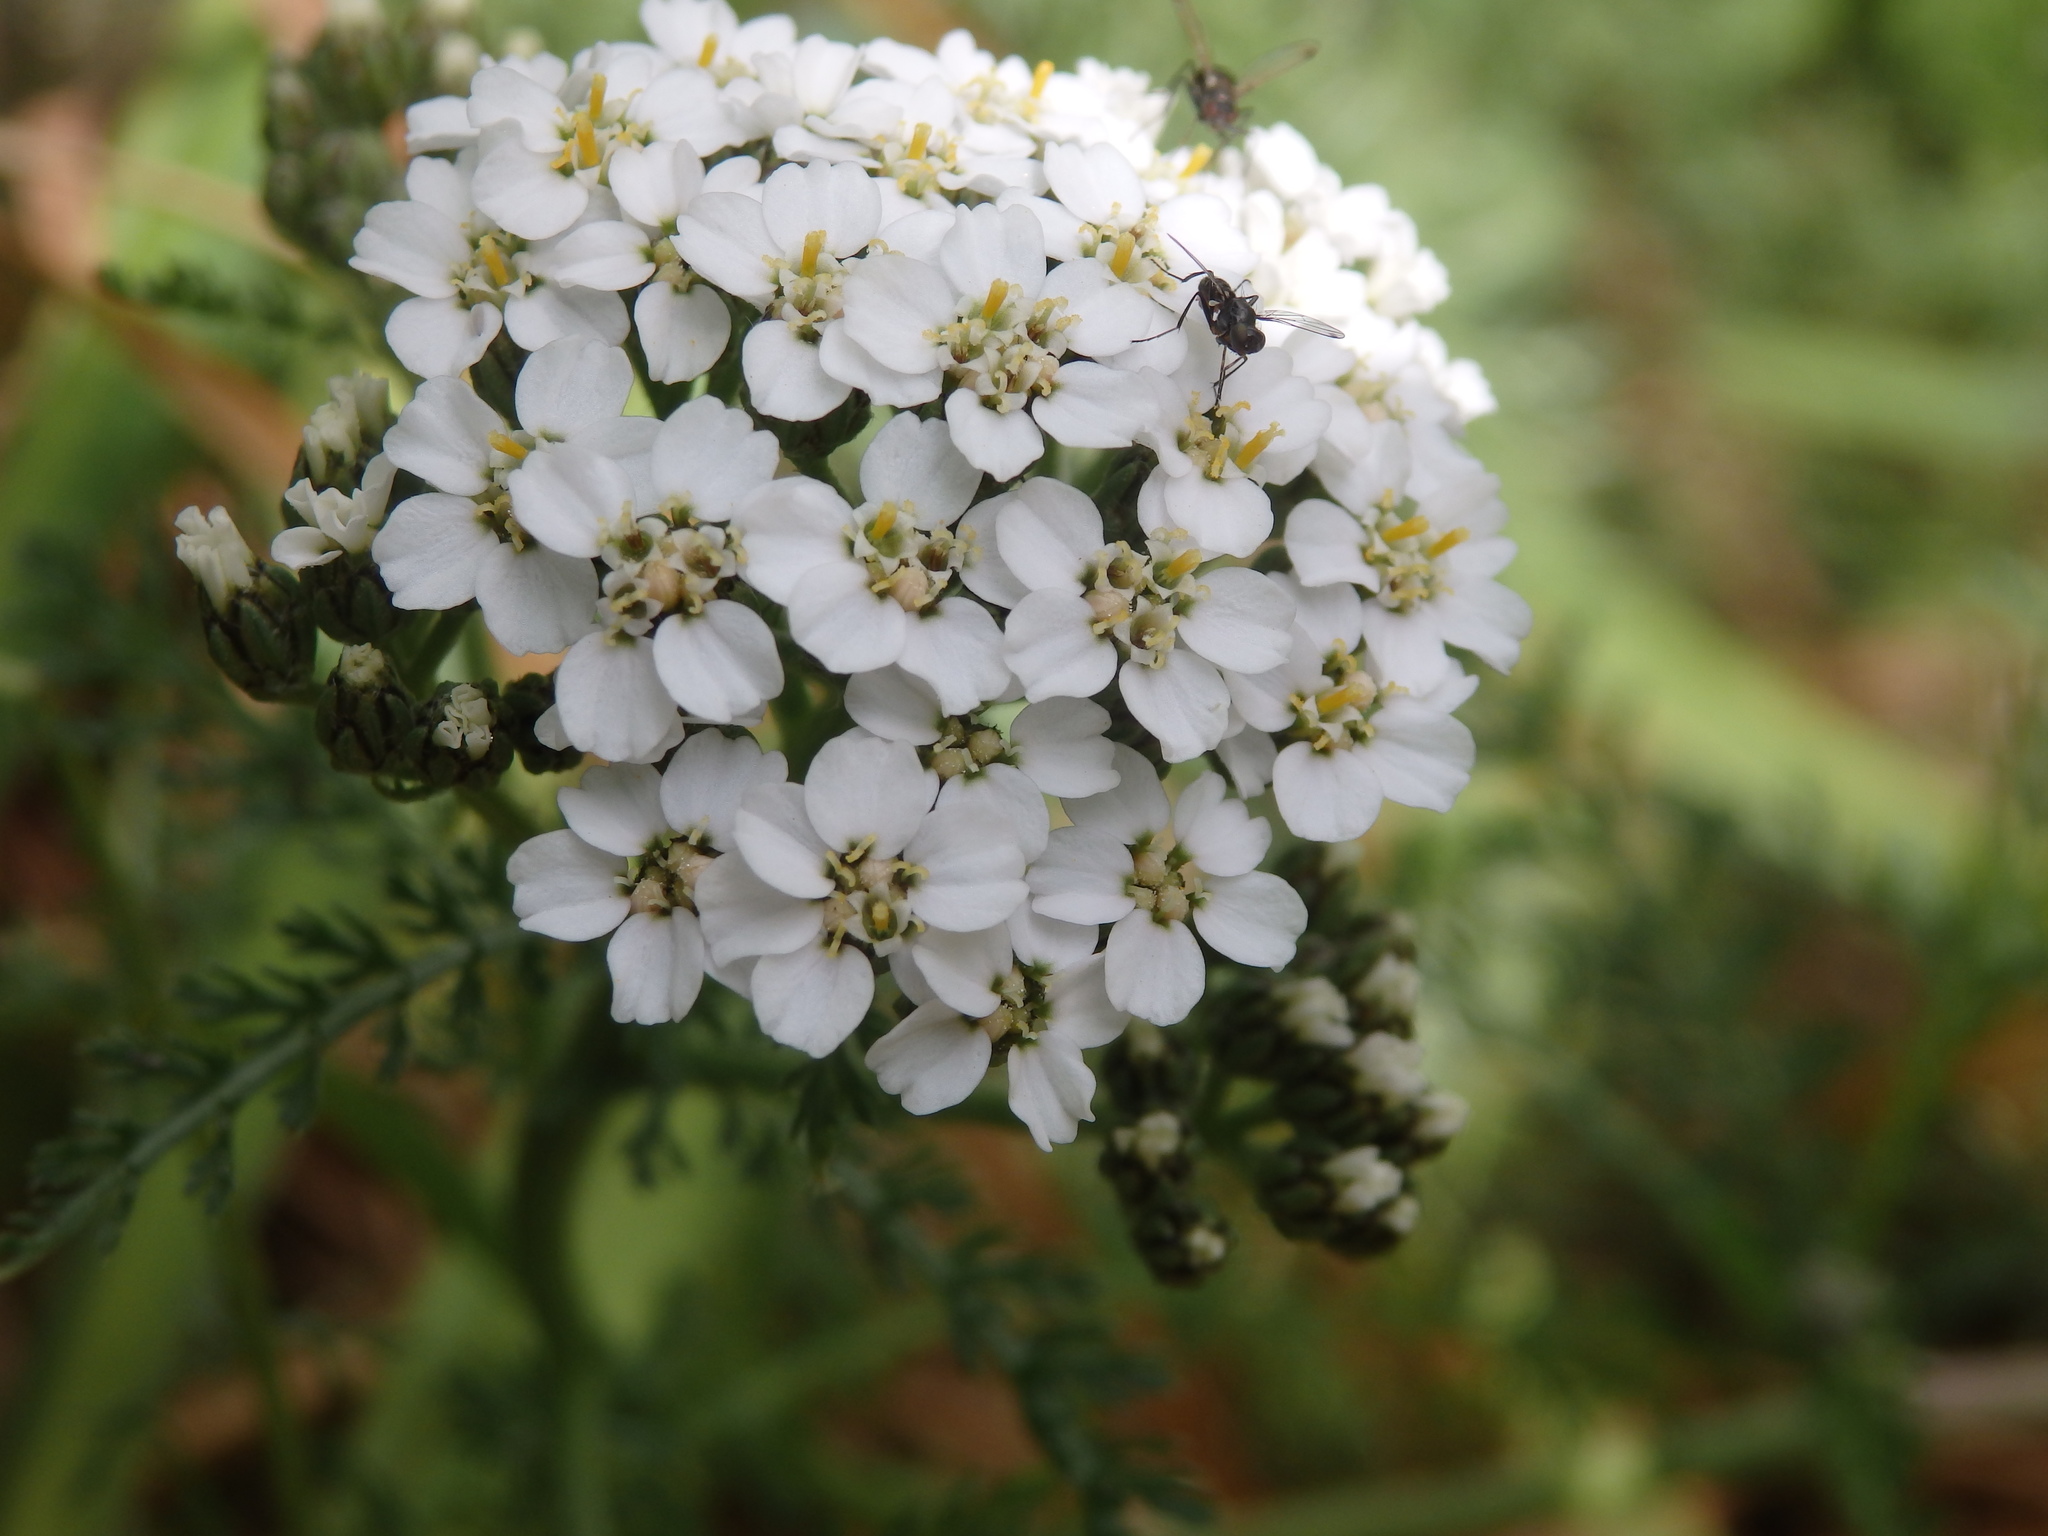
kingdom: Plantae
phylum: Tracheophyta
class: Magnoliopsida
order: Asterales
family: Asteraceae
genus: Achillea
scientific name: Achillea millefolium
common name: Yarrow
